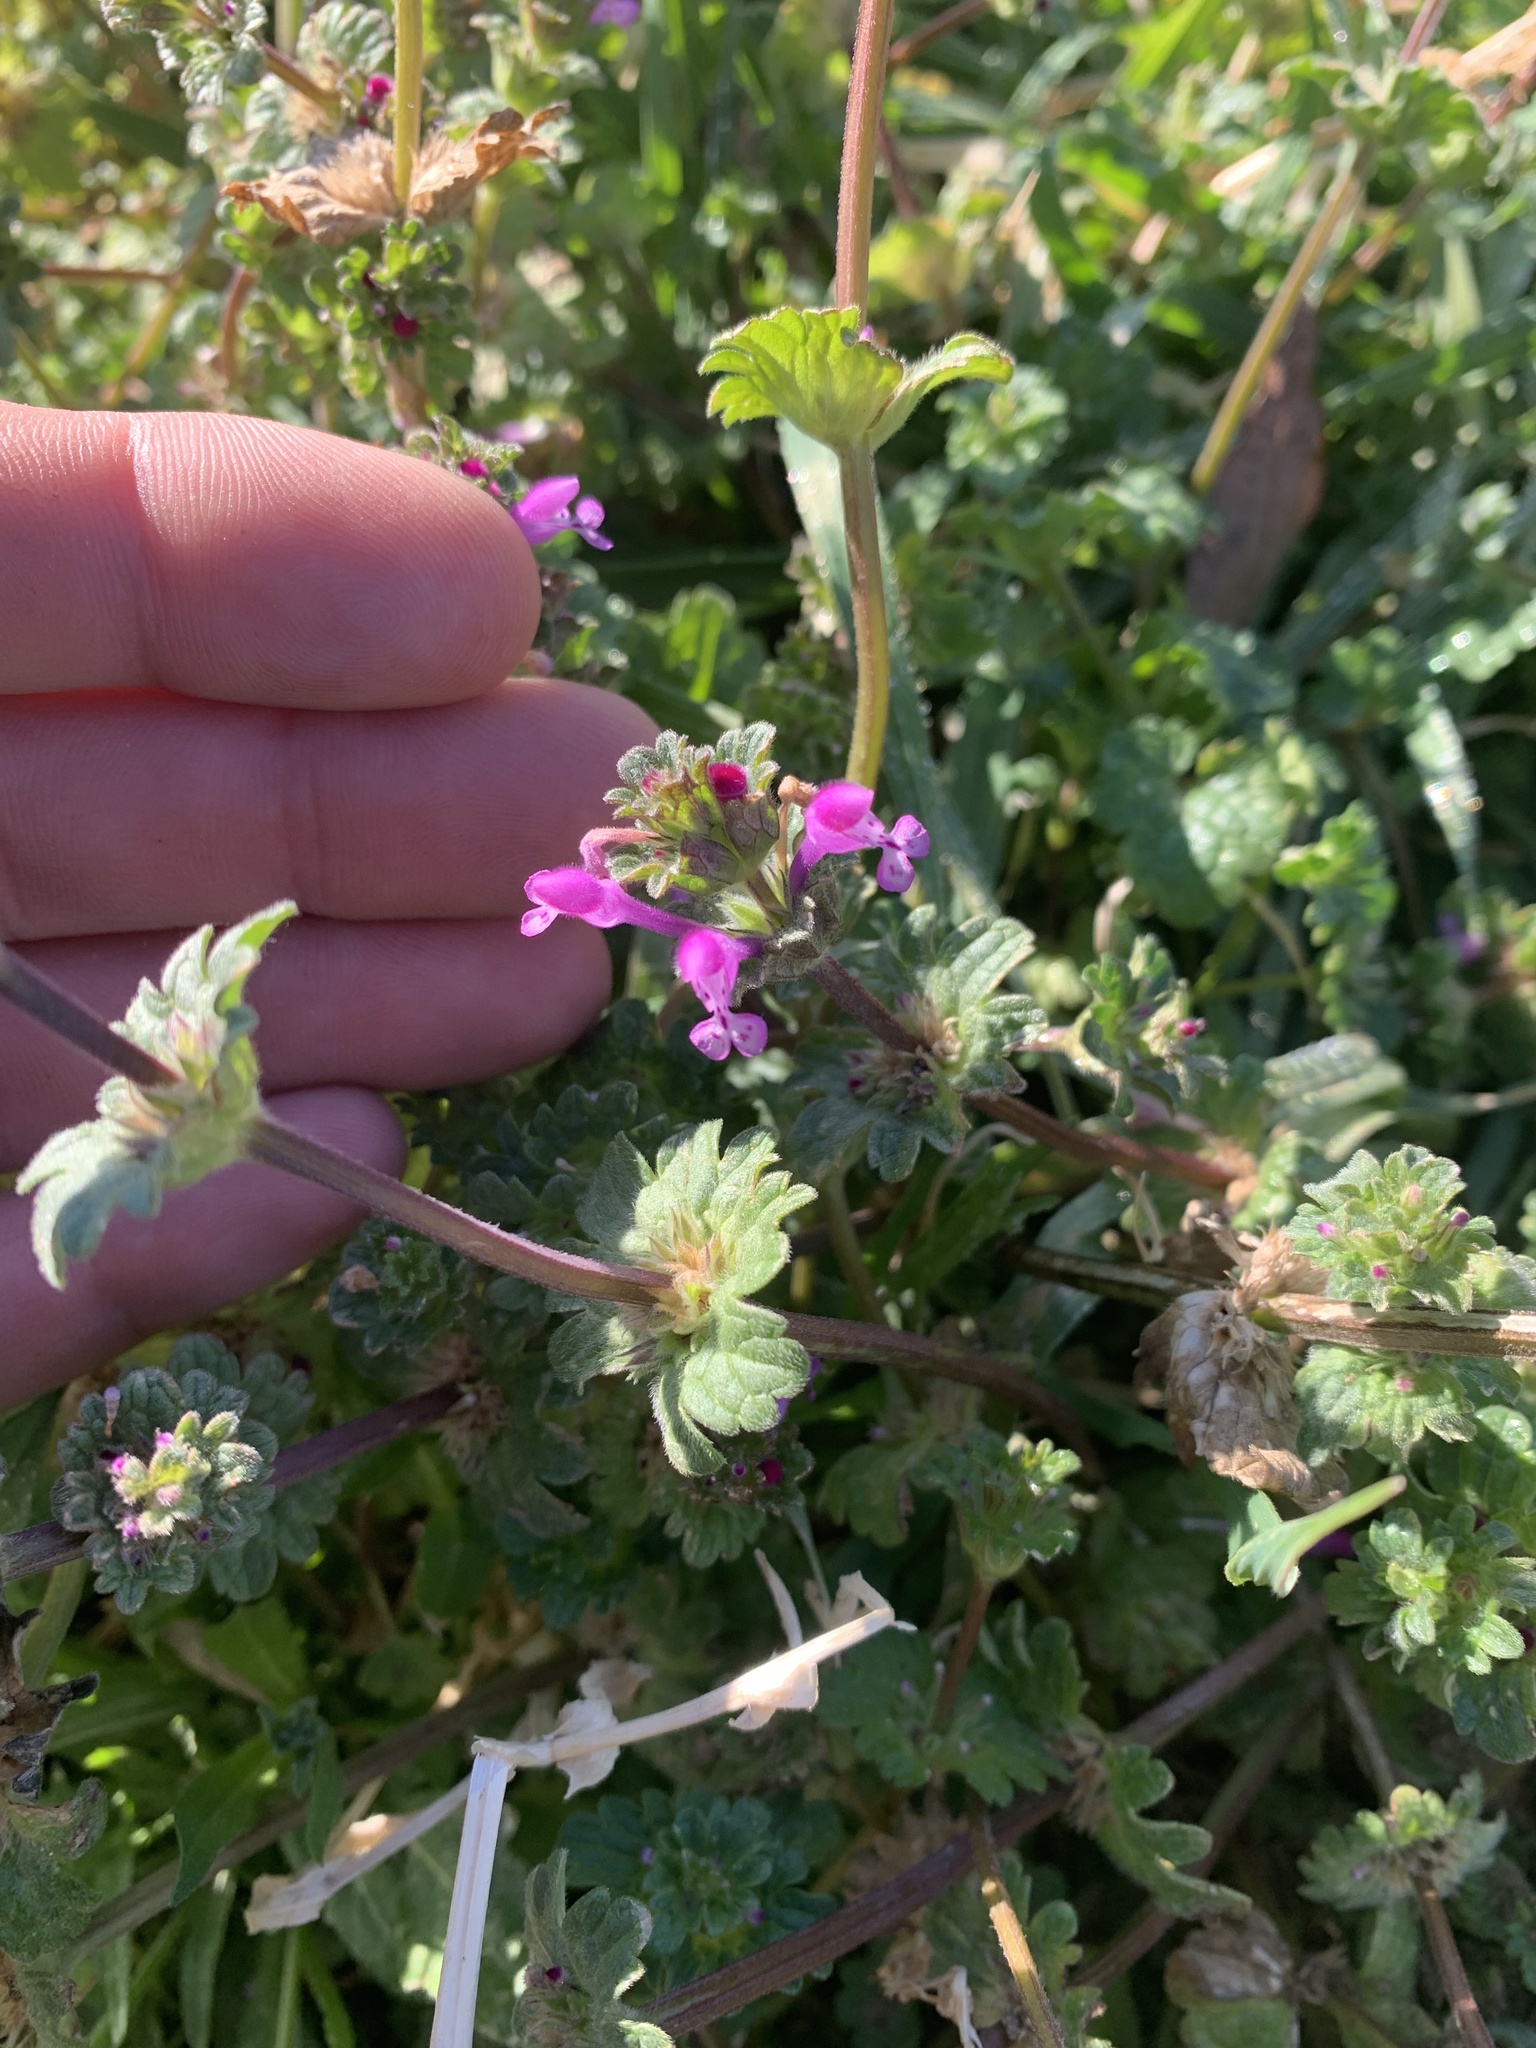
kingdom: Plantae
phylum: Tracheophyta
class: Magnoliopsida
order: Lamiales
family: Lamiaceae
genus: Lamium
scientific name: Lamium amplexicaule
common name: Henbit dead-nettle
